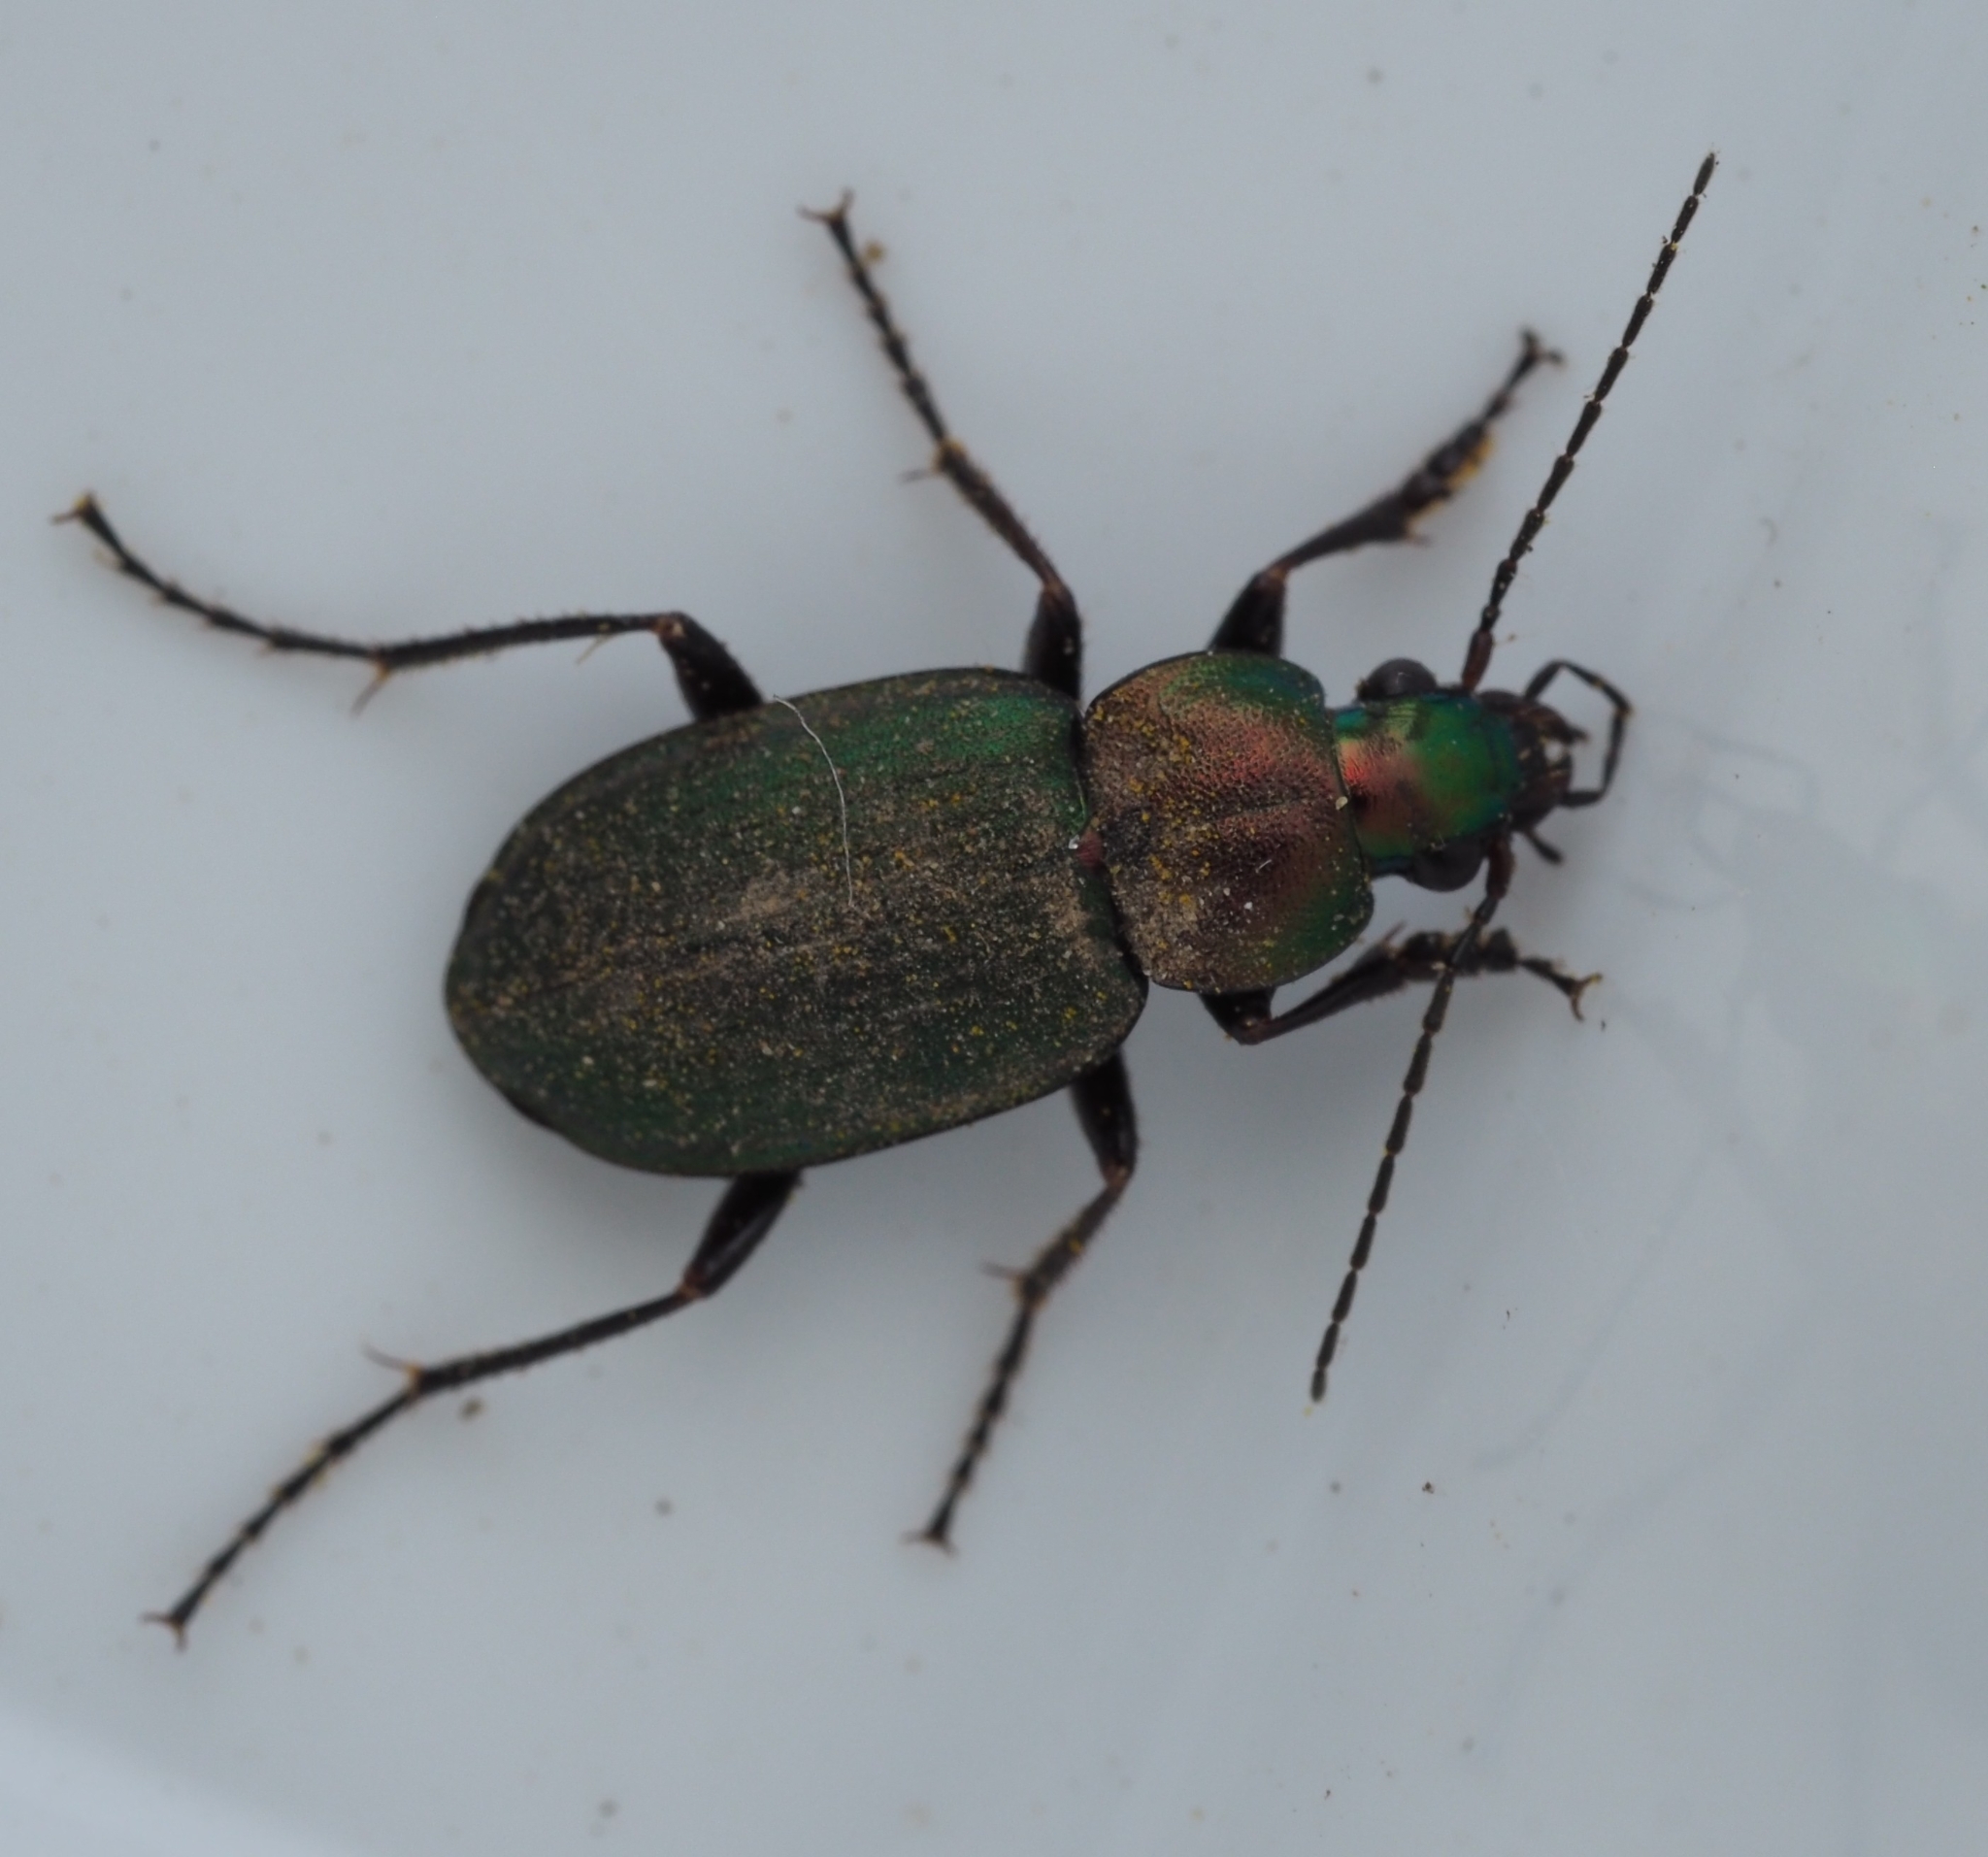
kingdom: Animalia
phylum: Arthropoda
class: Insecta
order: Coleoptera
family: Carabidae
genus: Chlaenius
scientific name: Chlaenius nigricornis
